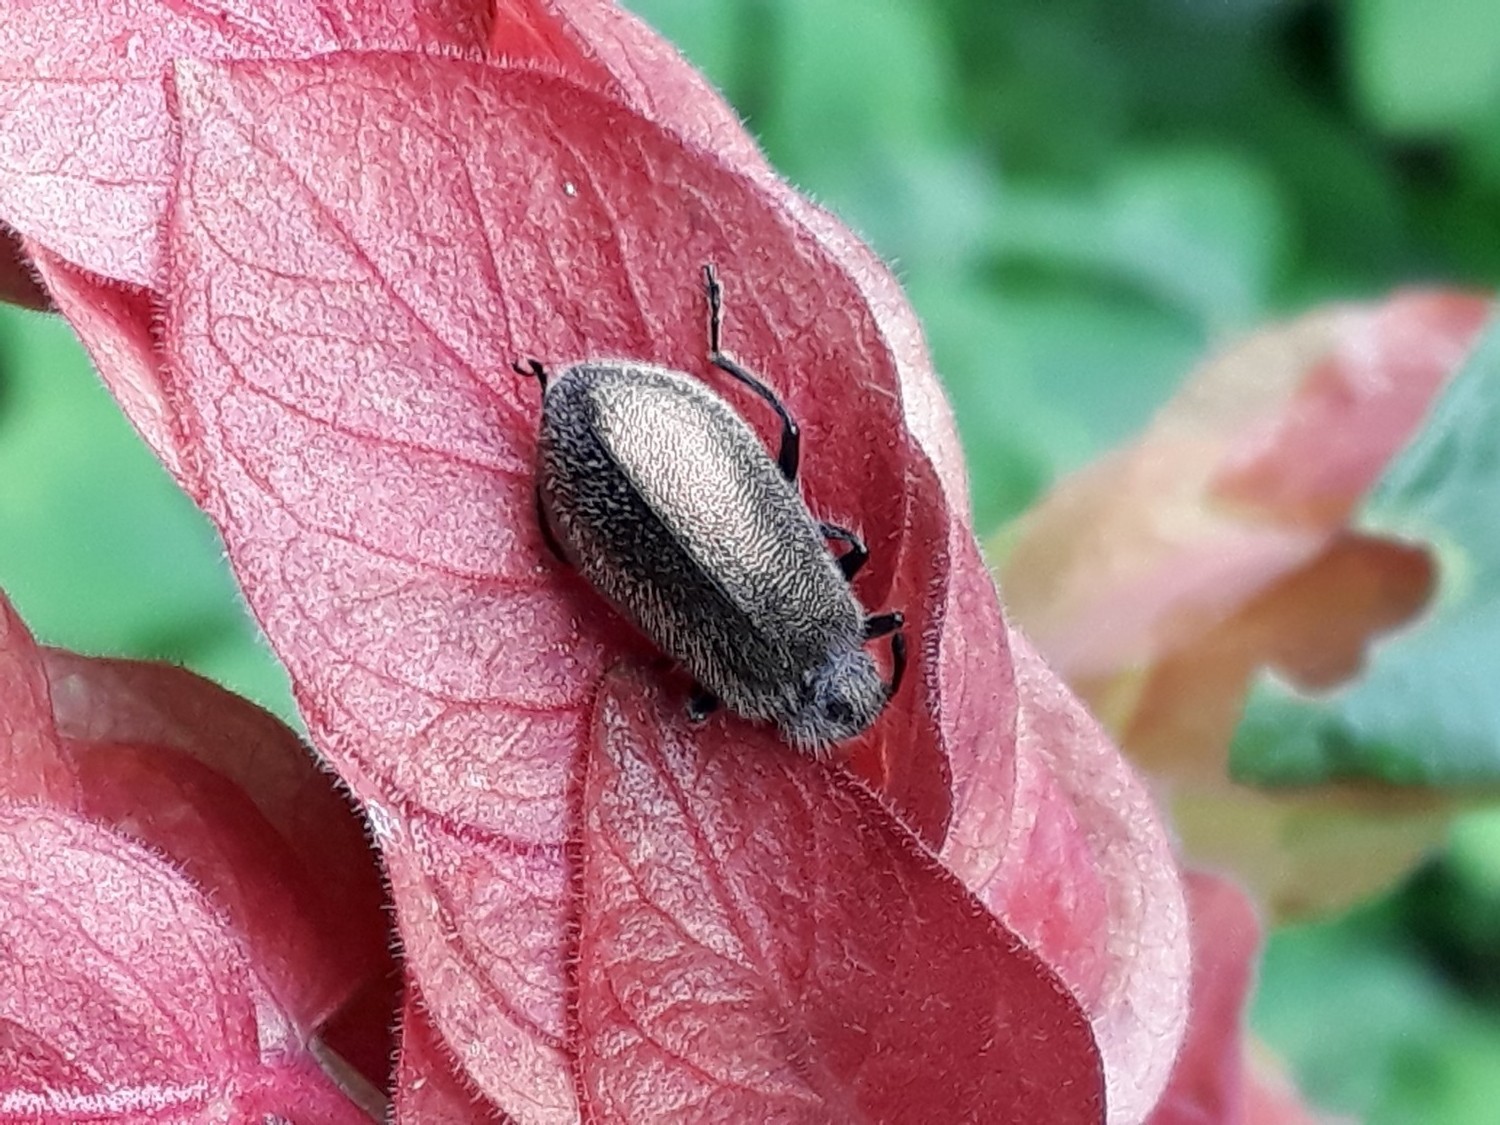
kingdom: Animalia
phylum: Arthropoda
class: Insecta
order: Coleoptera
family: Tenebrionidae
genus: Lagria
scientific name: Lagria villosa
